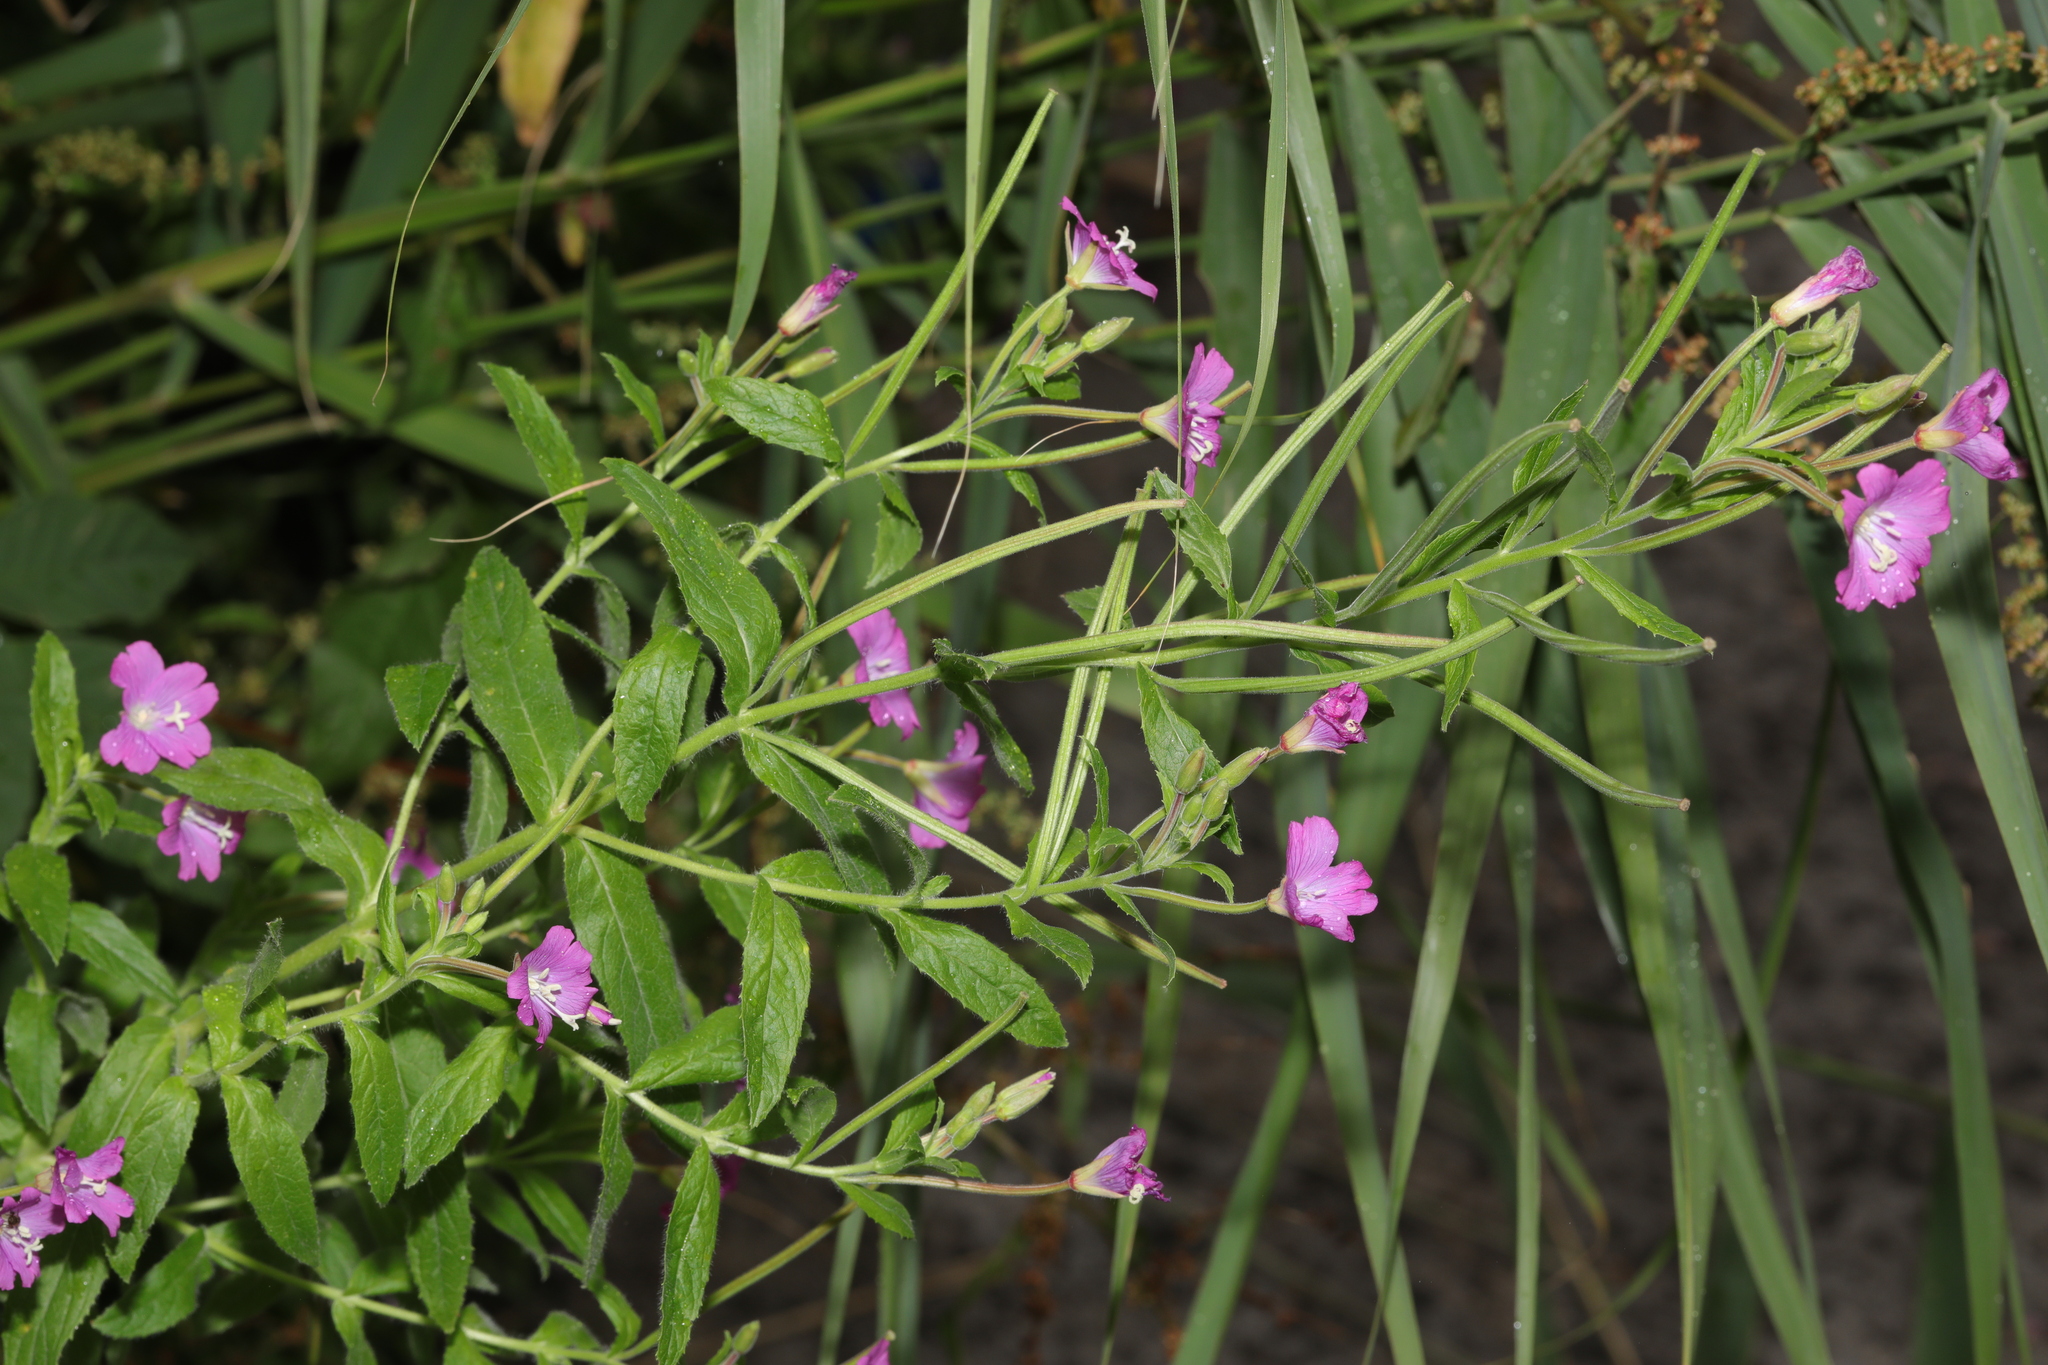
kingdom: Plantae
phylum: Tracheophyta
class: Magnoliopsida
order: Myrtales
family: Onagraceae
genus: Epilobium
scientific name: Epilobium hirsutum
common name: Great willowherb
